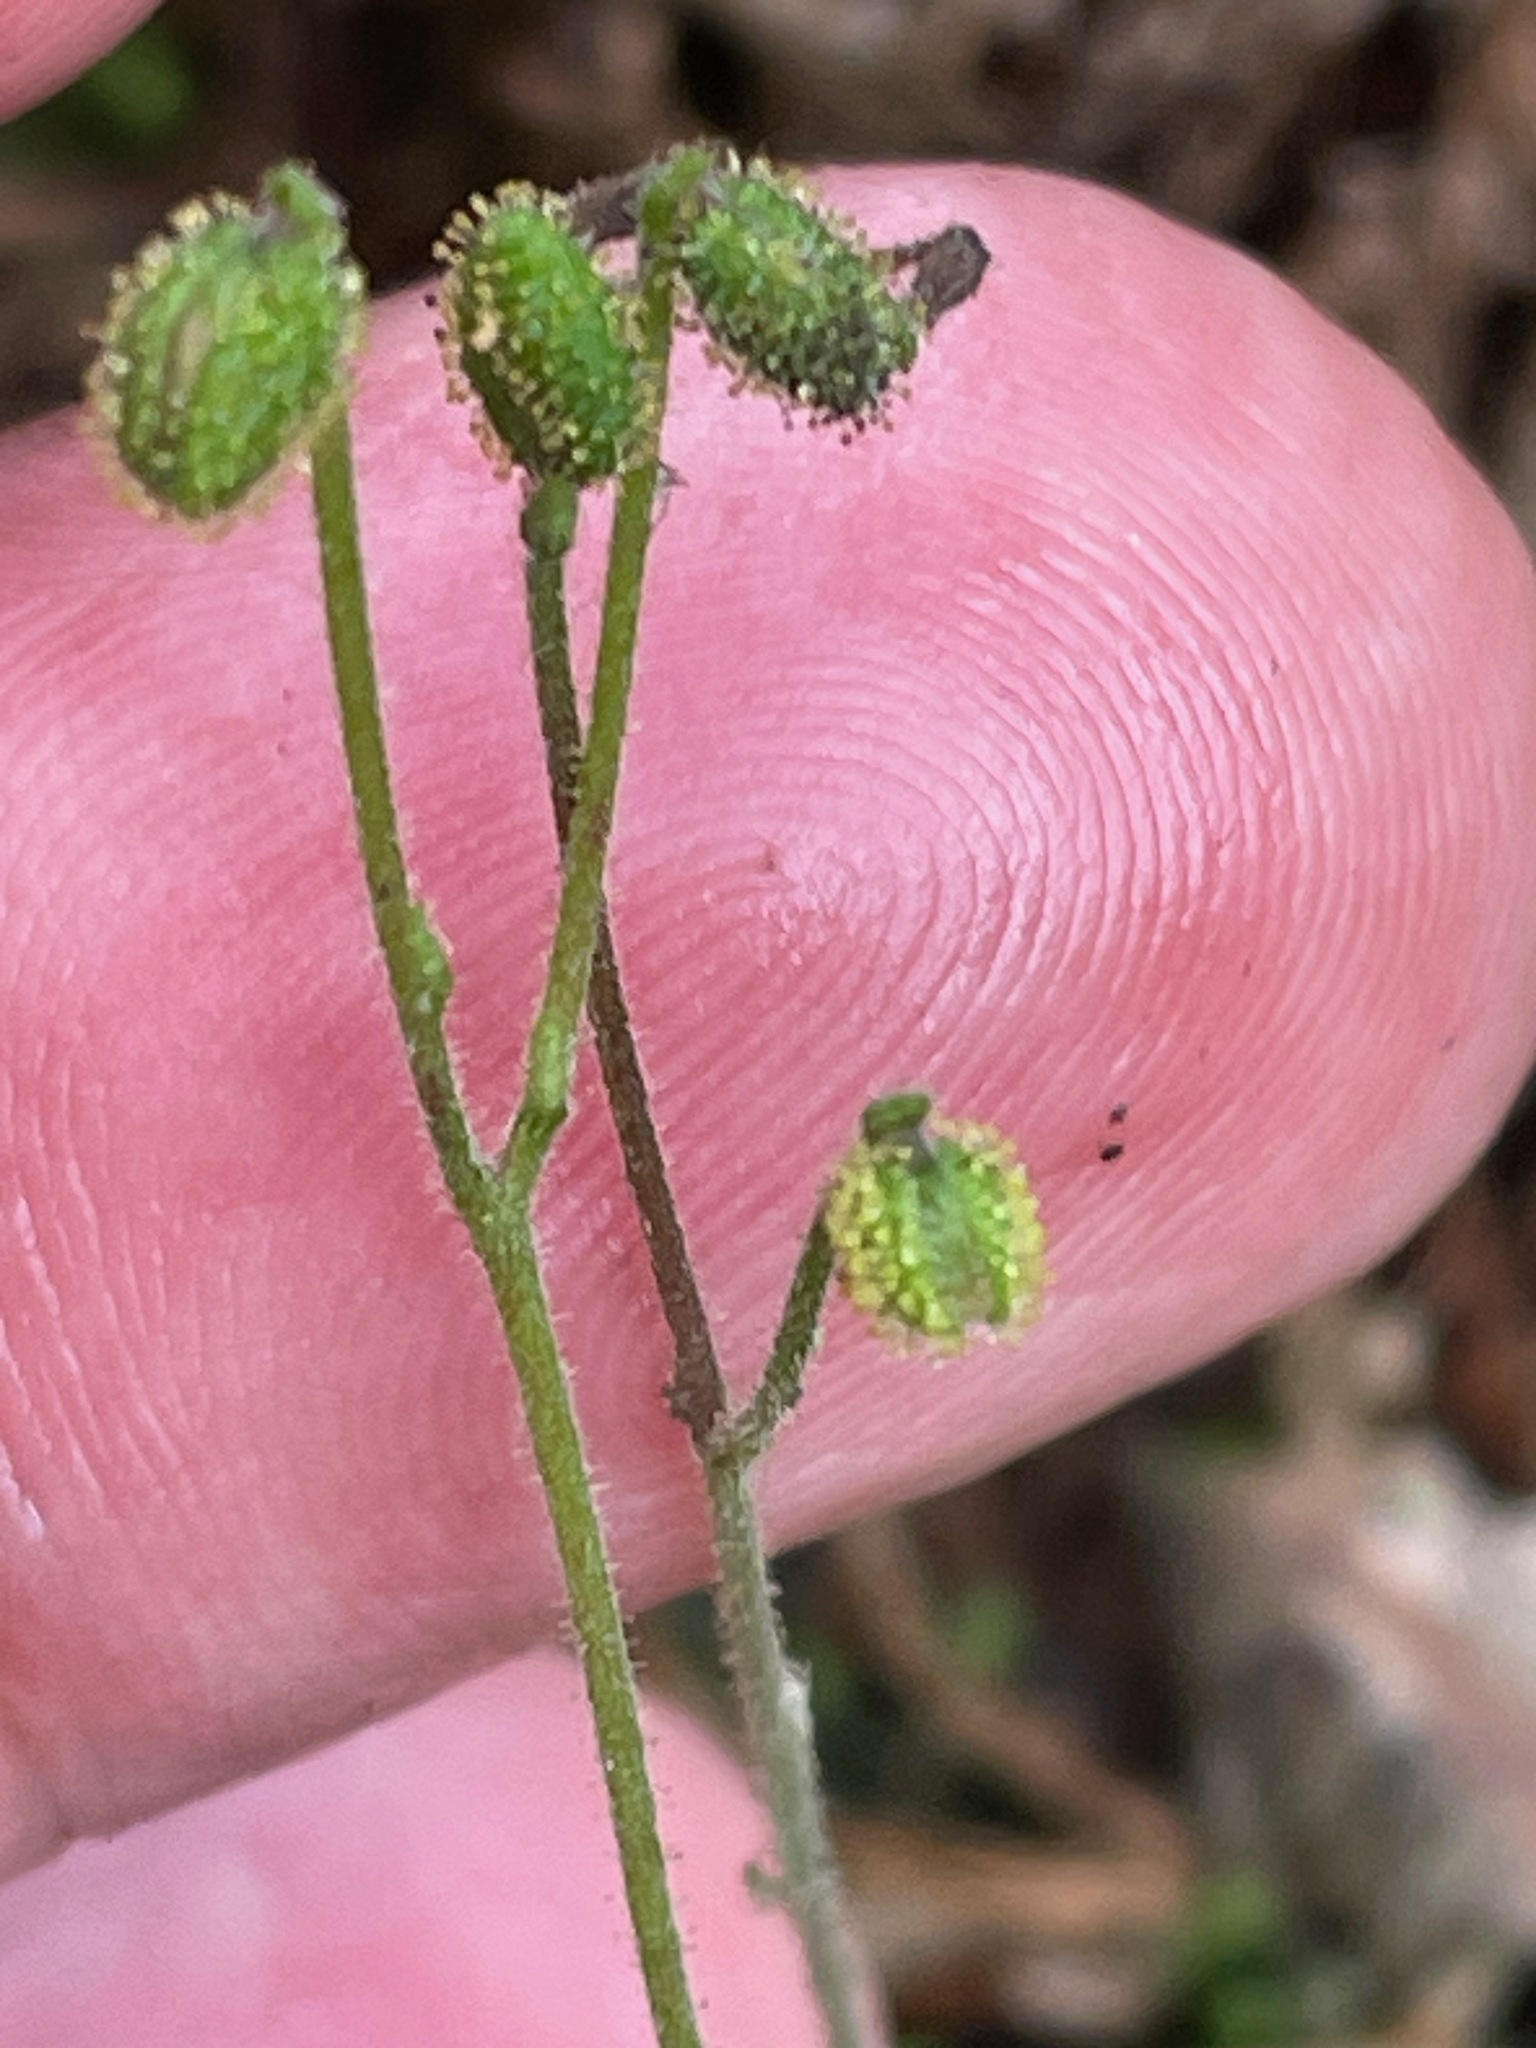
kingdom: Plantae
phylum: Tracheophyta
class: Magnoliopsida
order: Dipsacales
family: Caprifoliaceae
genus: Linnaea
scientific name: Linnaea borealis
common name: Twinflower
